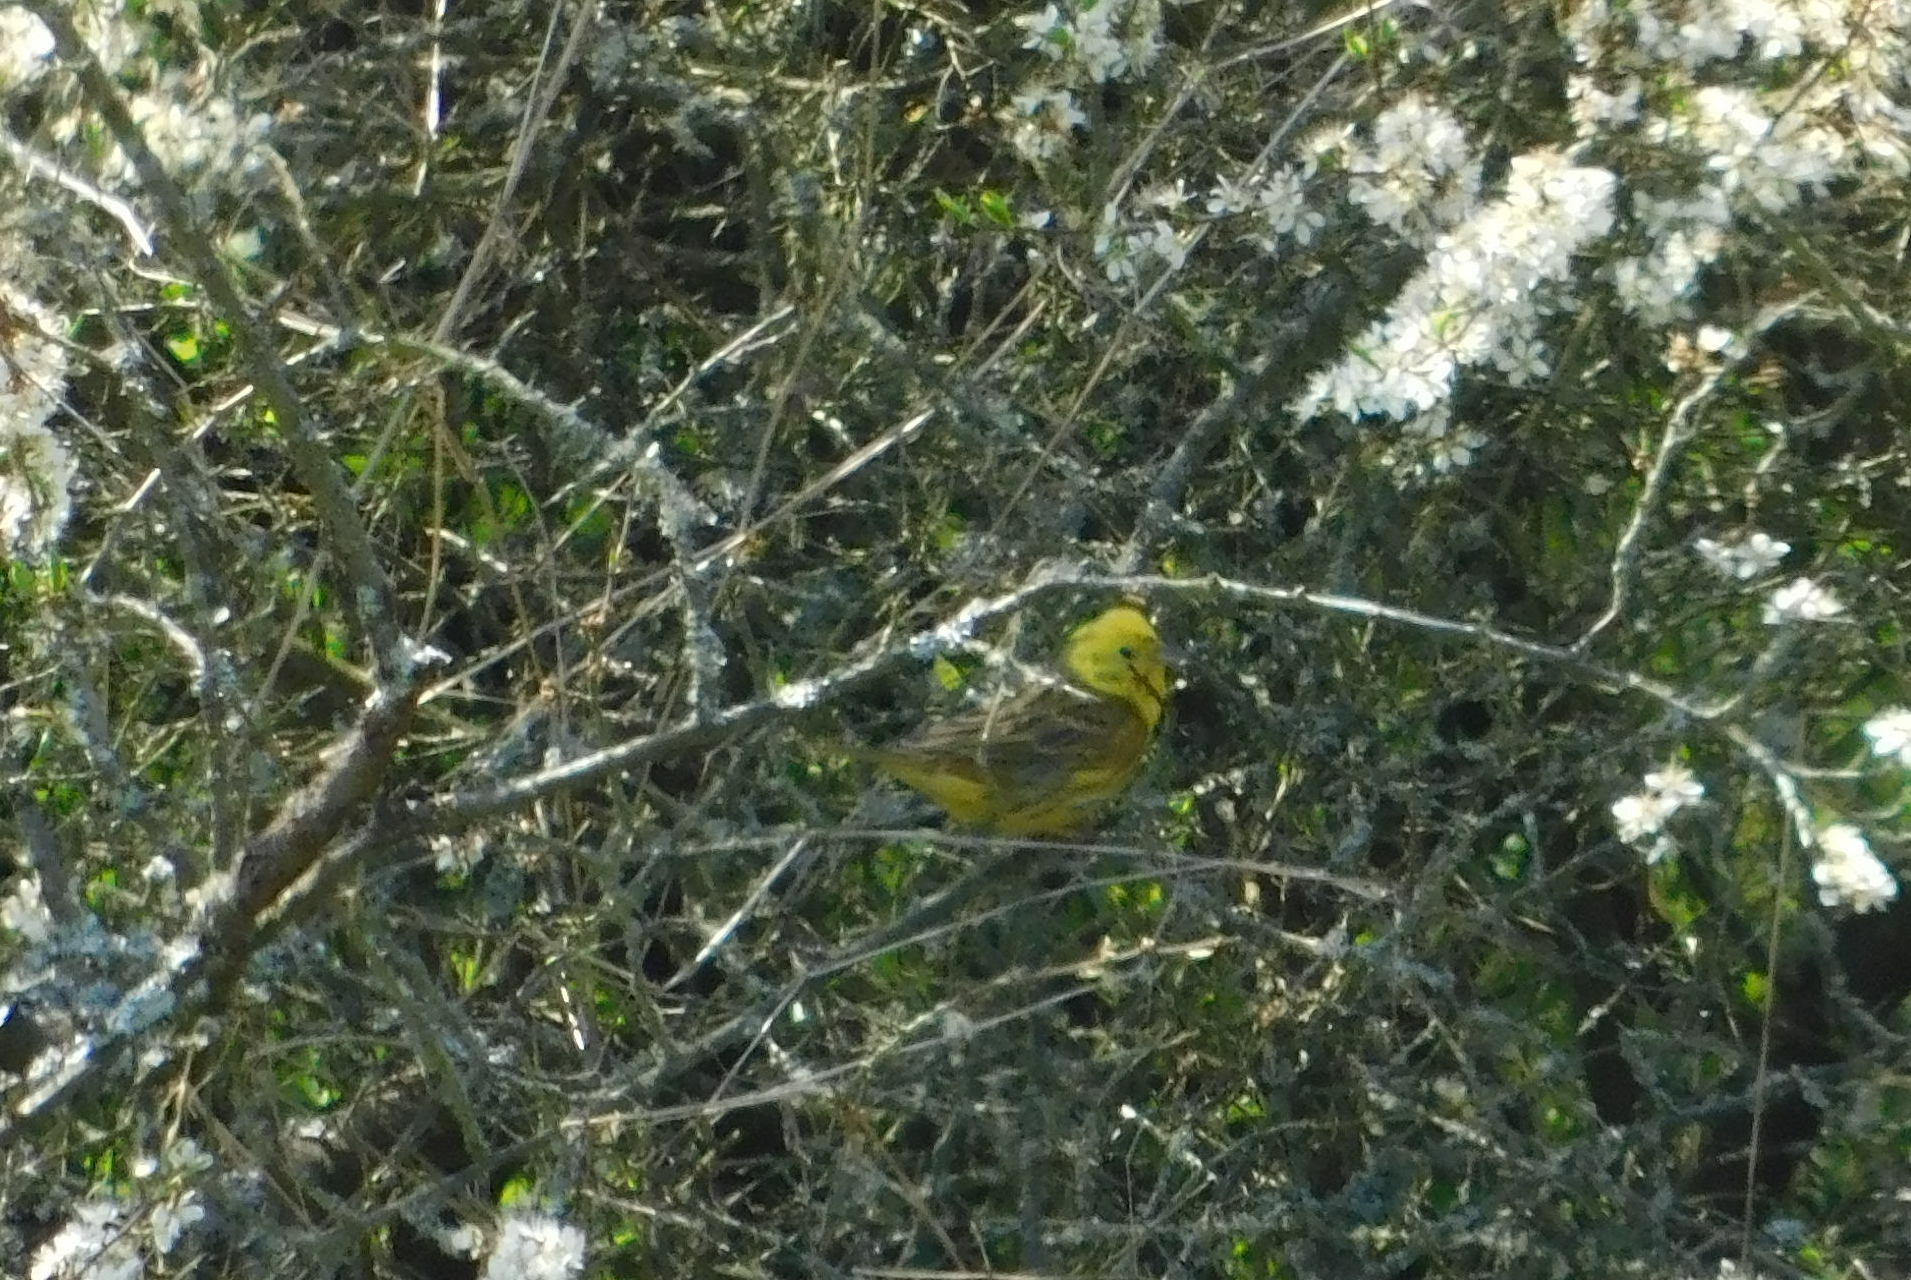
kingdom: Animalia
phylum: Chordata
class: Aves
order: Passeriformes
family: Emberizidae
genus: Emberiza
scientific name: Emberiza citrinella
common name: Yellowhammer
